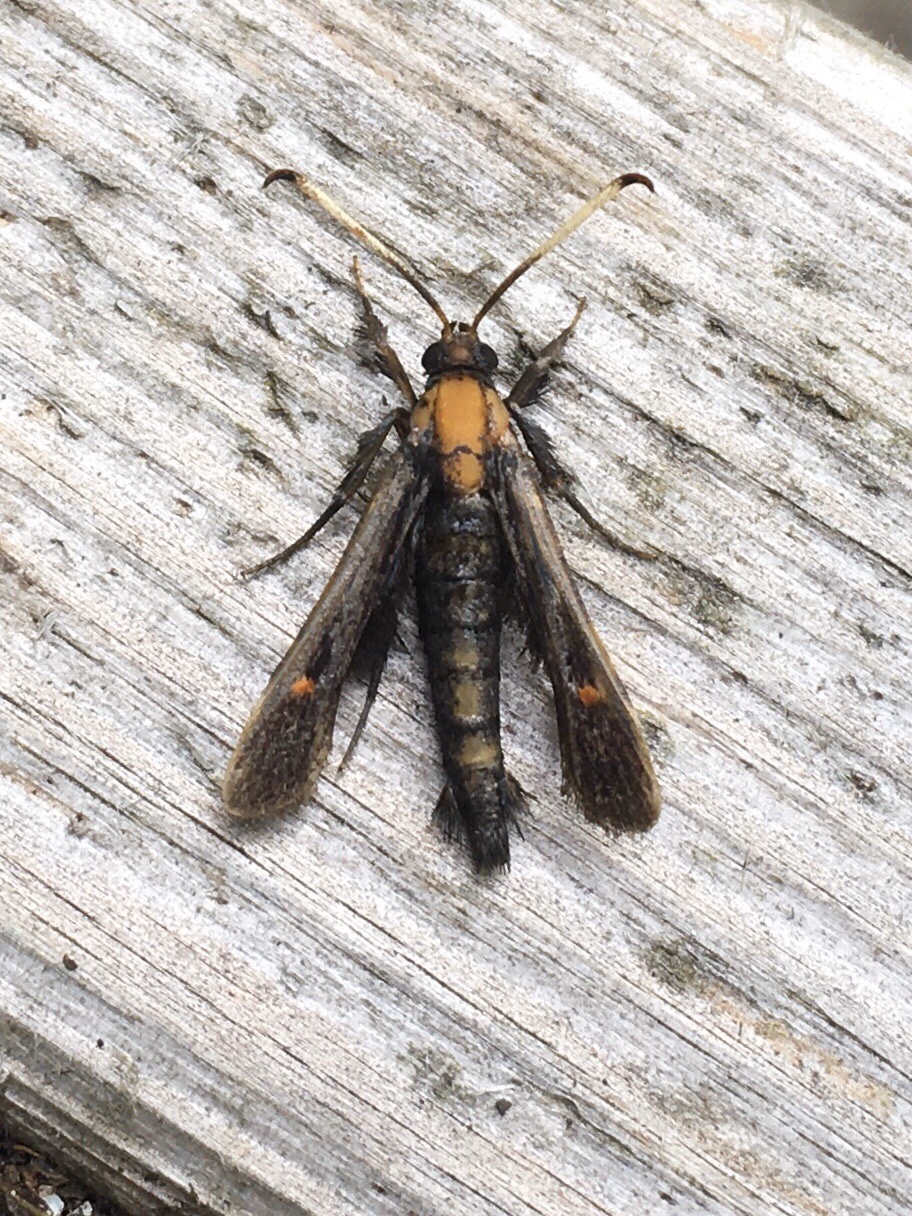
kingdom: Animalia
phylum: Arthropoda
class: Insecta
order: Lepidoptera
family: Sesiidae
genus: Albuna
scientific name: Albuna fraxini
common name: Virginia creeper clearwing
